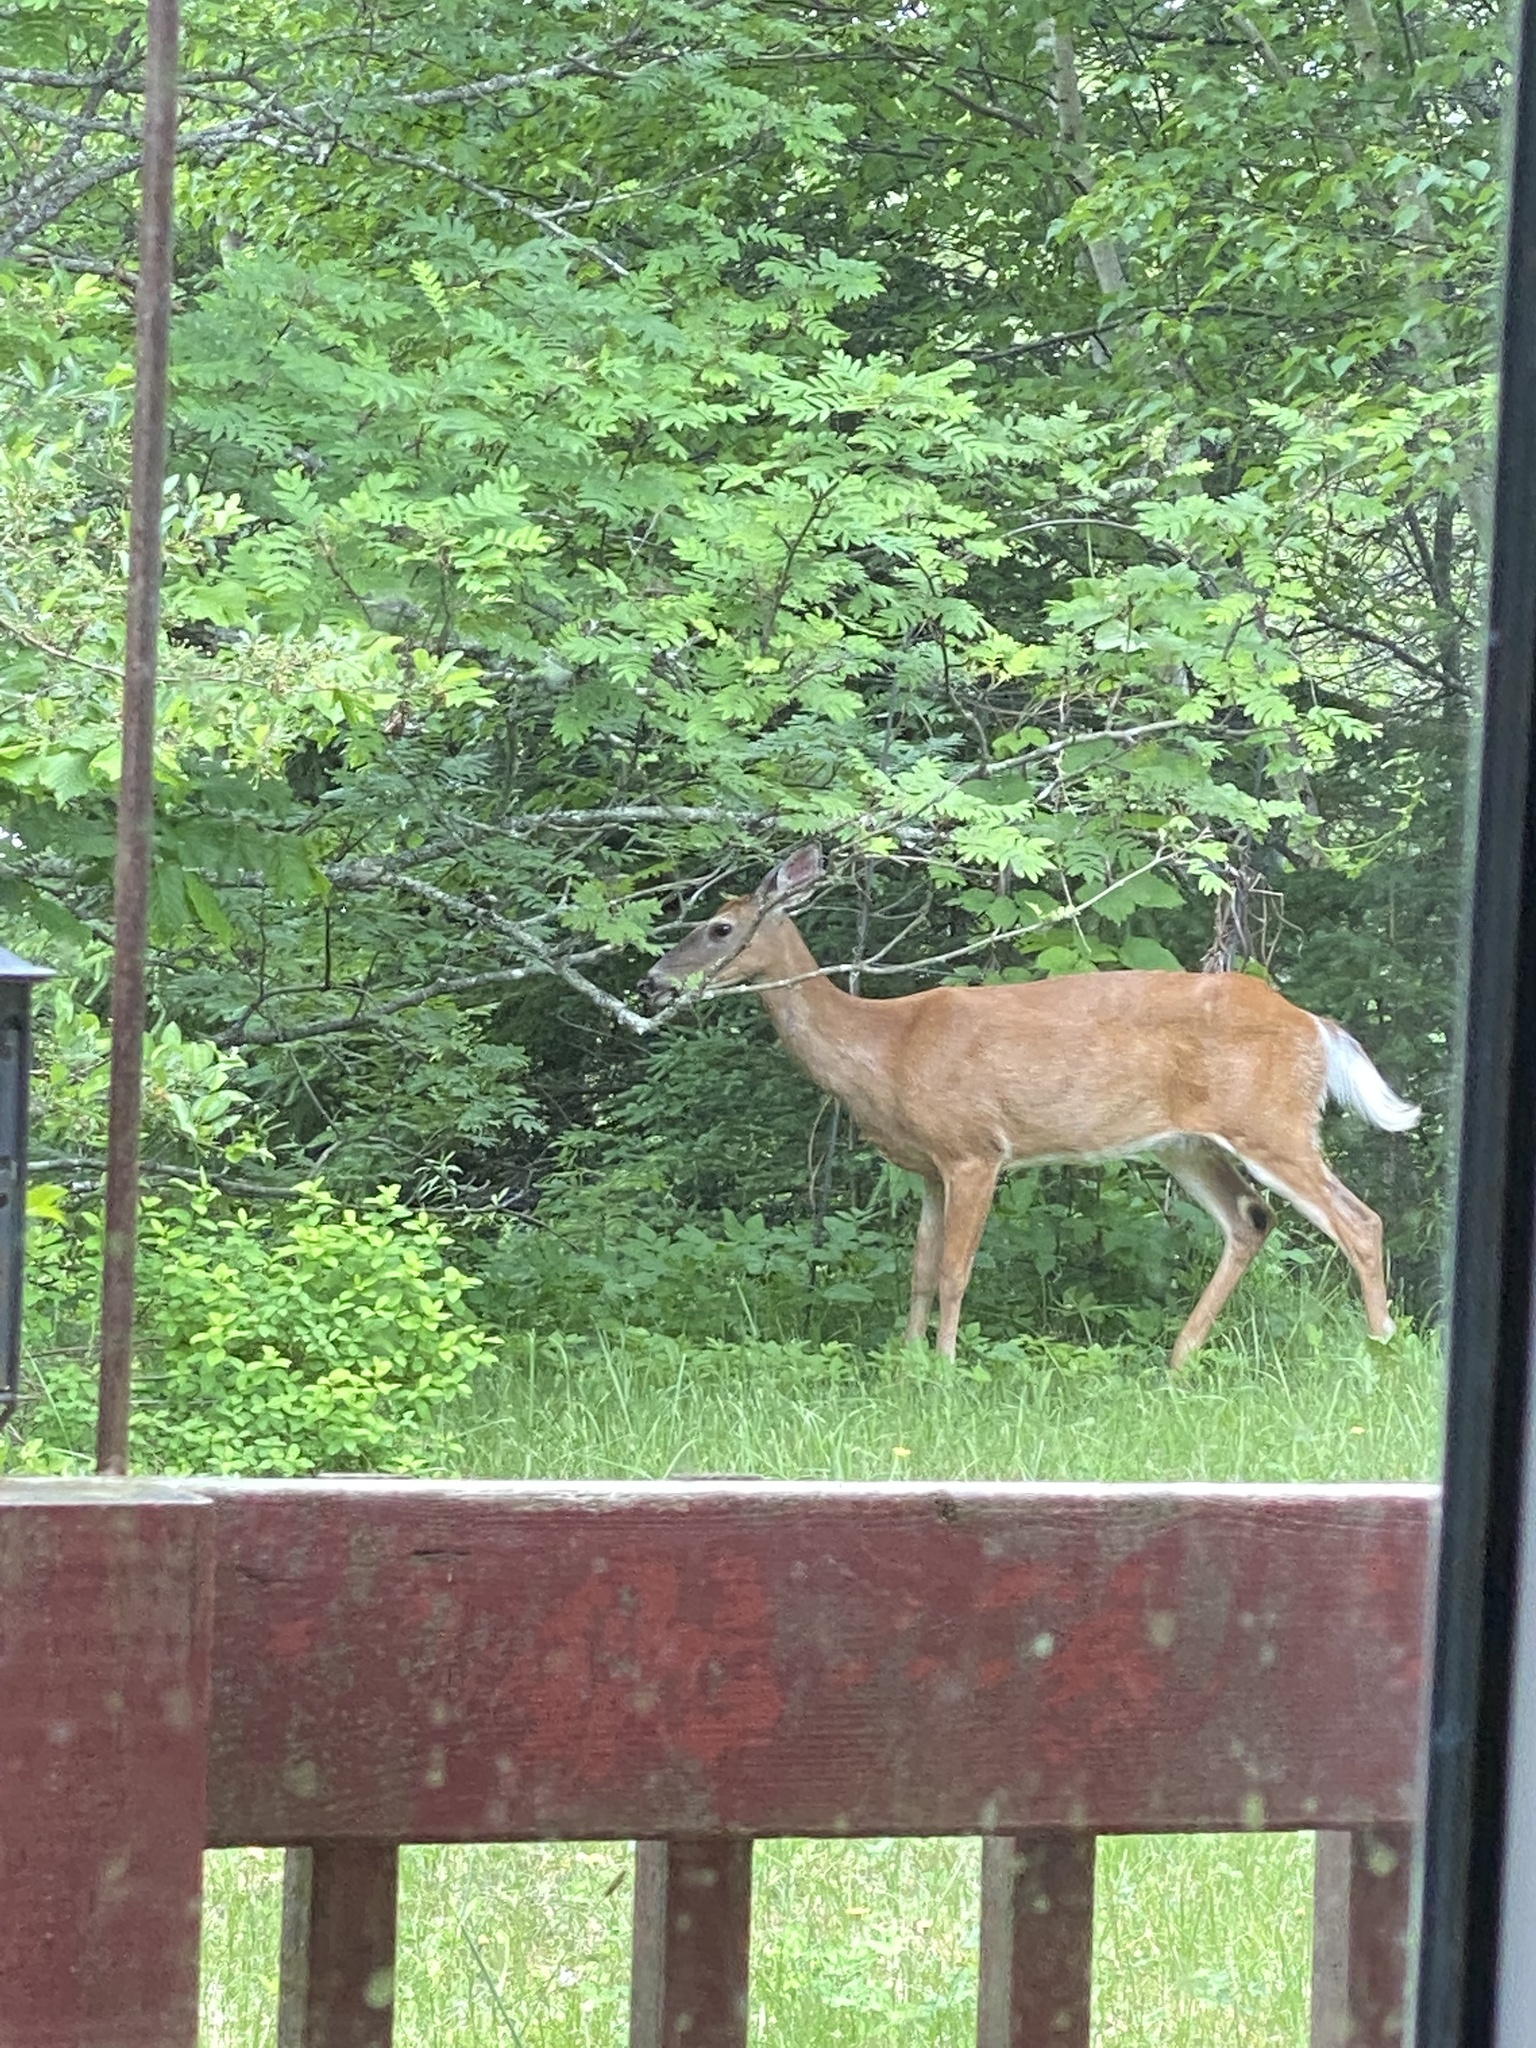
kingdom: Animalia
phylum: Chordata
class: Mammalia
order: Artiodactyla
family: Cervidae
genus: Odocoileus
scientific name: Odocoileus virginianus
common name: White-tailed deer
